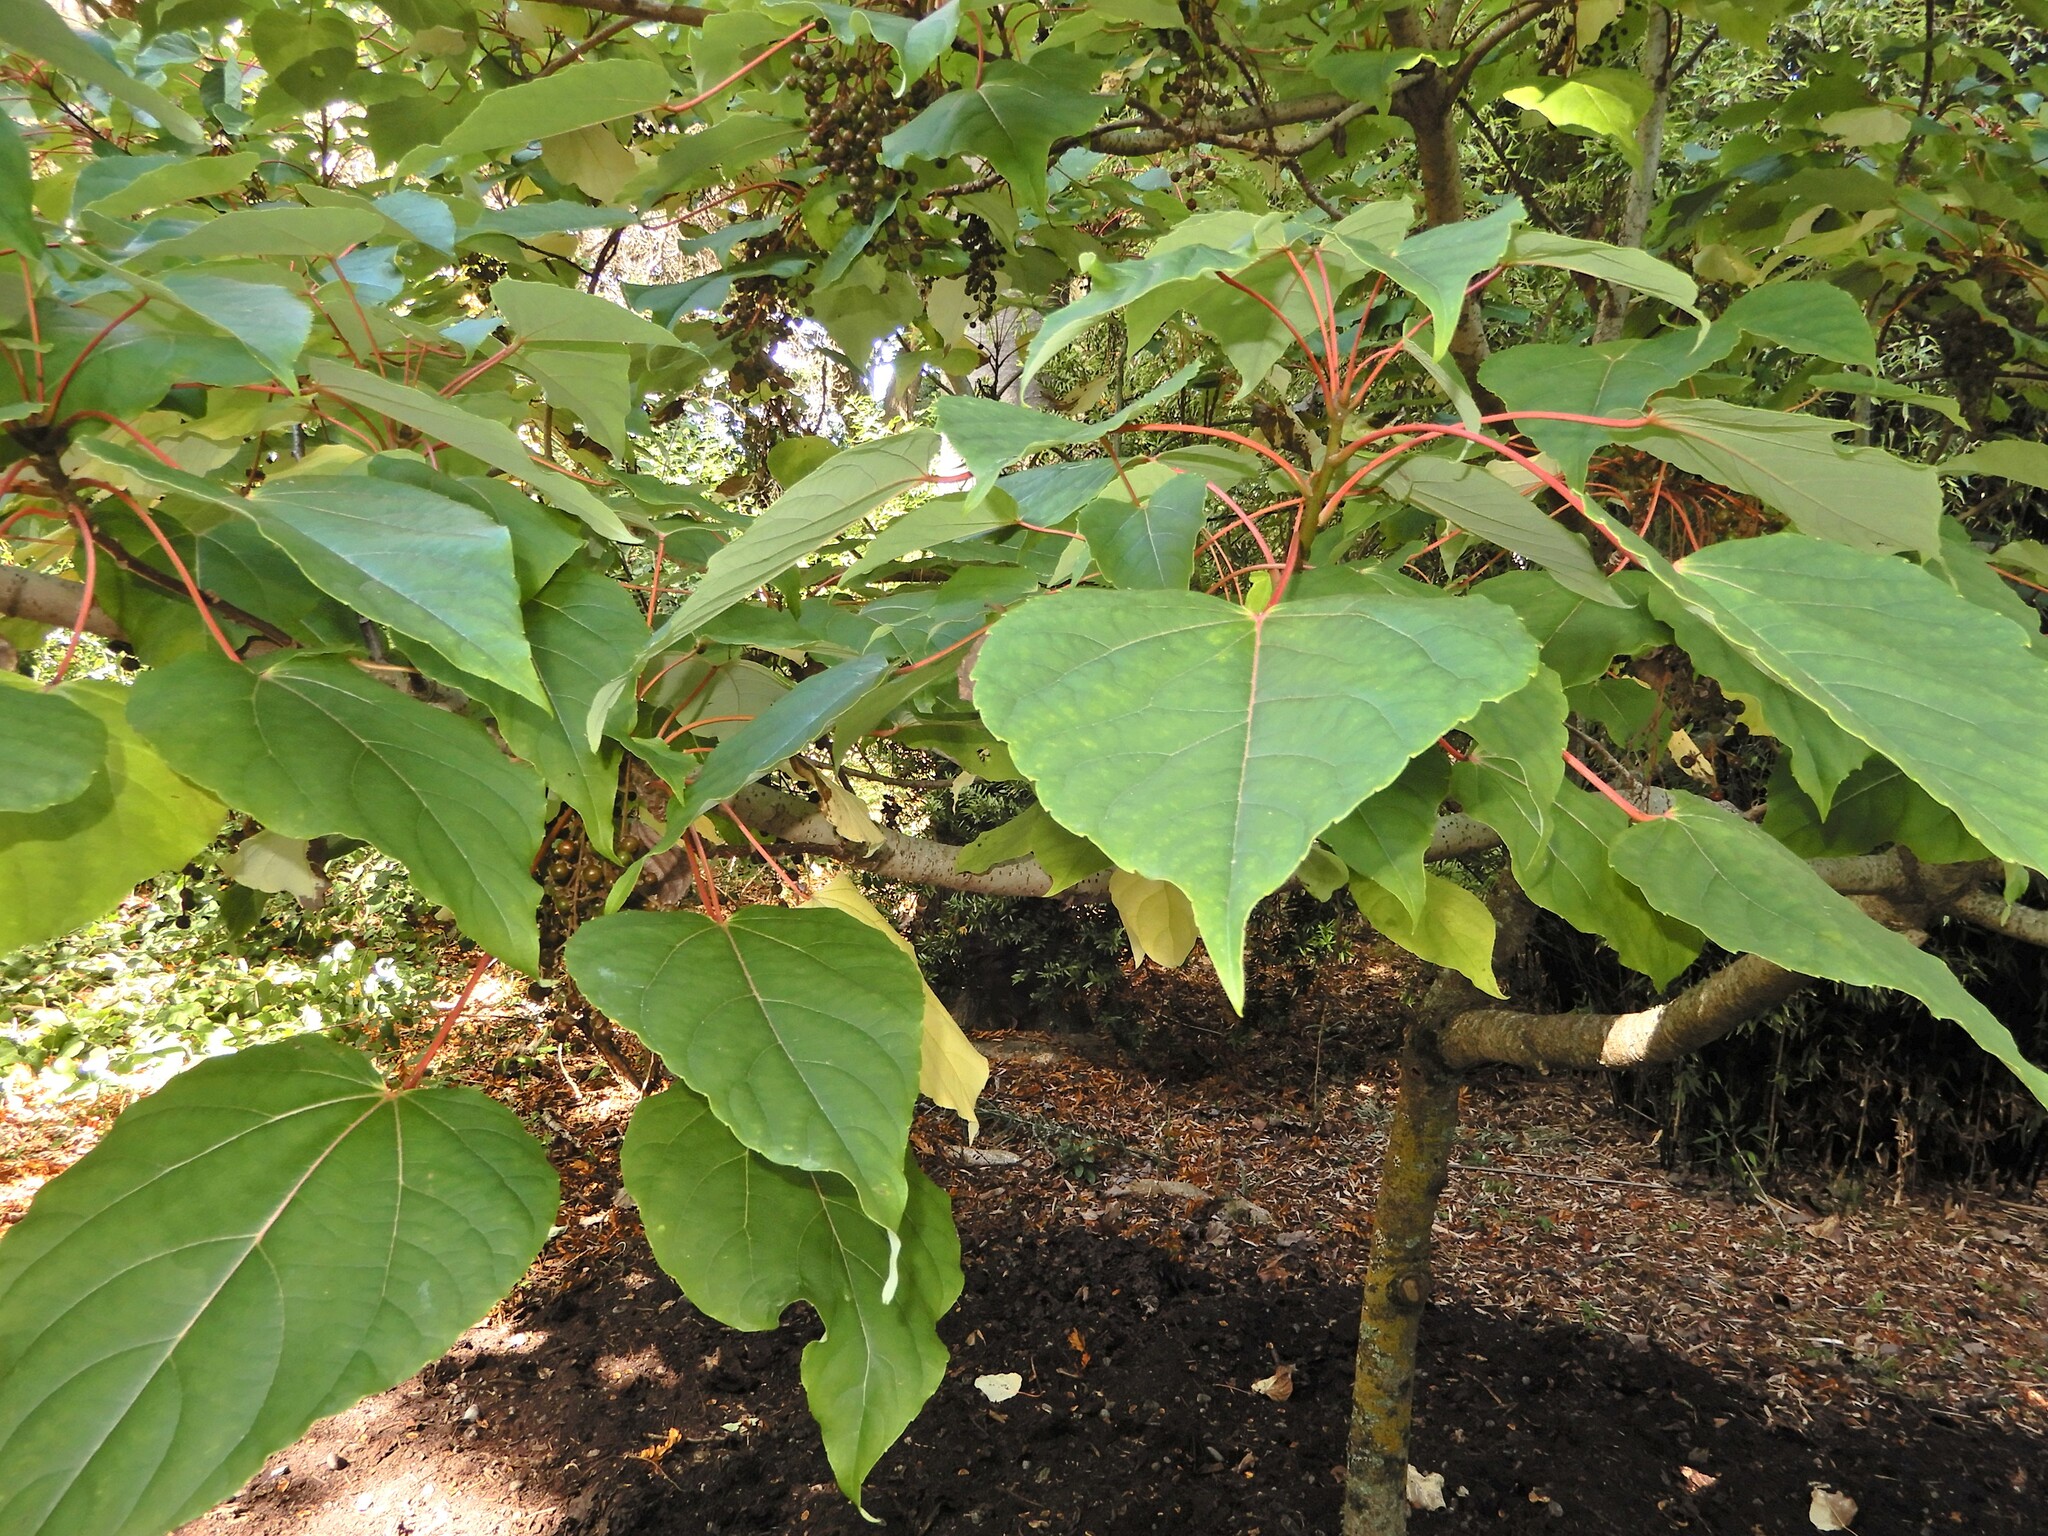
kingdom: Plantae
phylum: Tracheophyta
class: Magnoliopsida
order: Malpighiales
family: Salicaceae
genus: Idesia
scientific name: Idesia polycarpa
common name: Idesia tree
